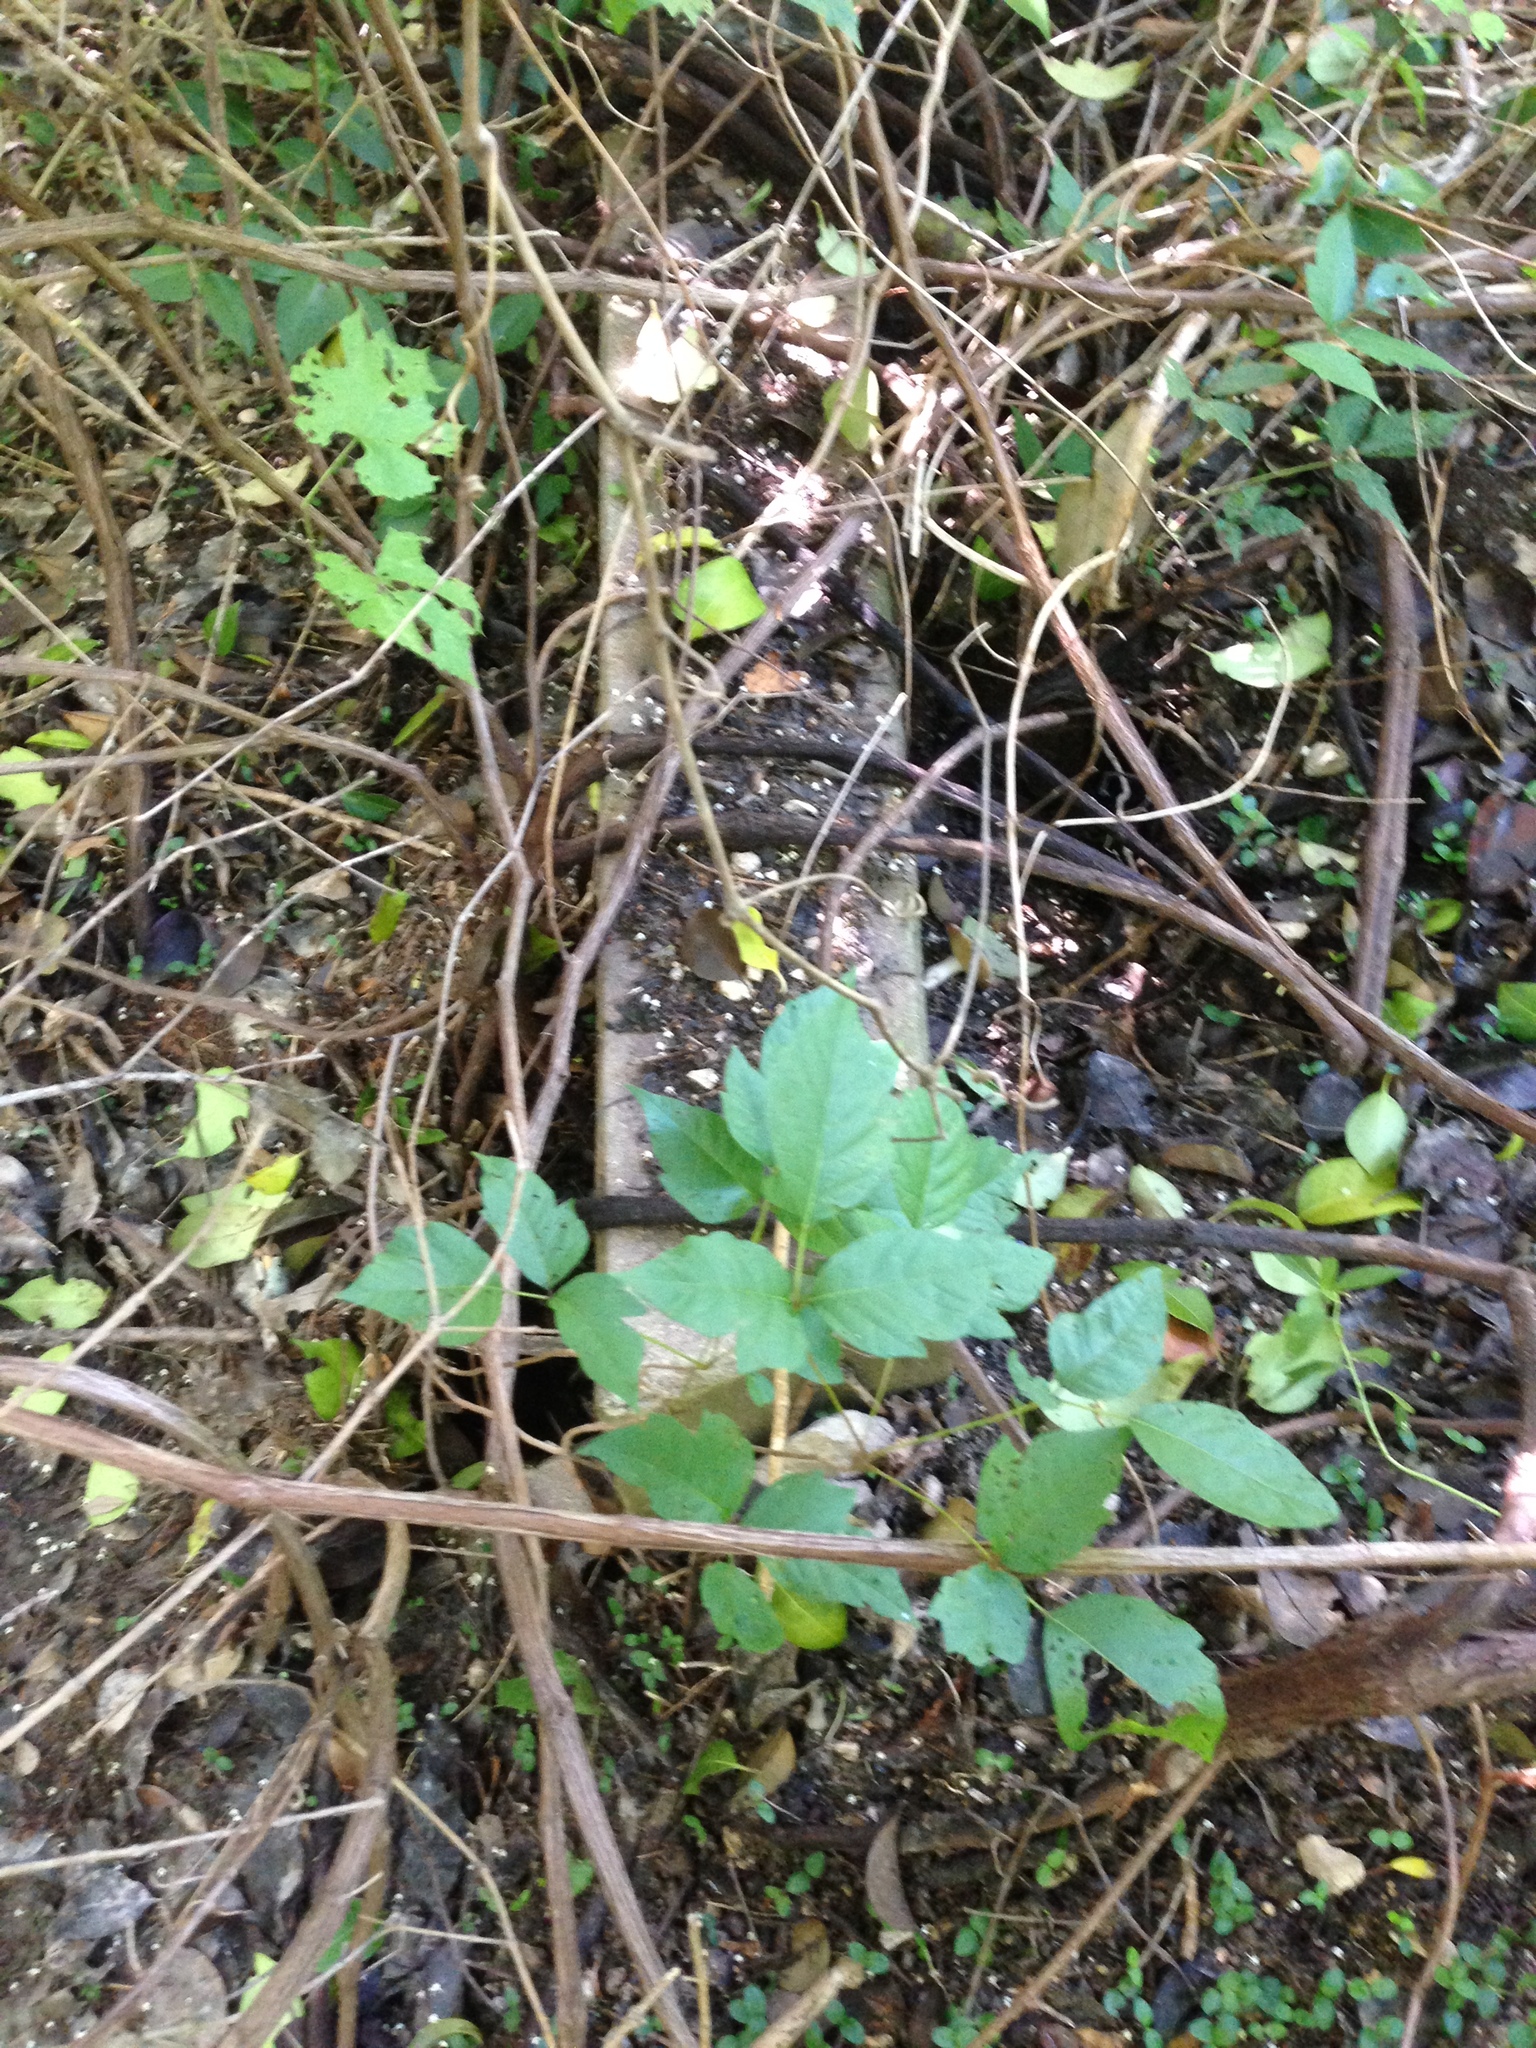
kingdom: Plantae
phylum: Tracheophyta
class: Magnoliopsida
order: Sapindales
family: Anacardiaceae
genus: Toxicodendron
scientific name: Toxicodendron radicans
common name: Poison ivy
